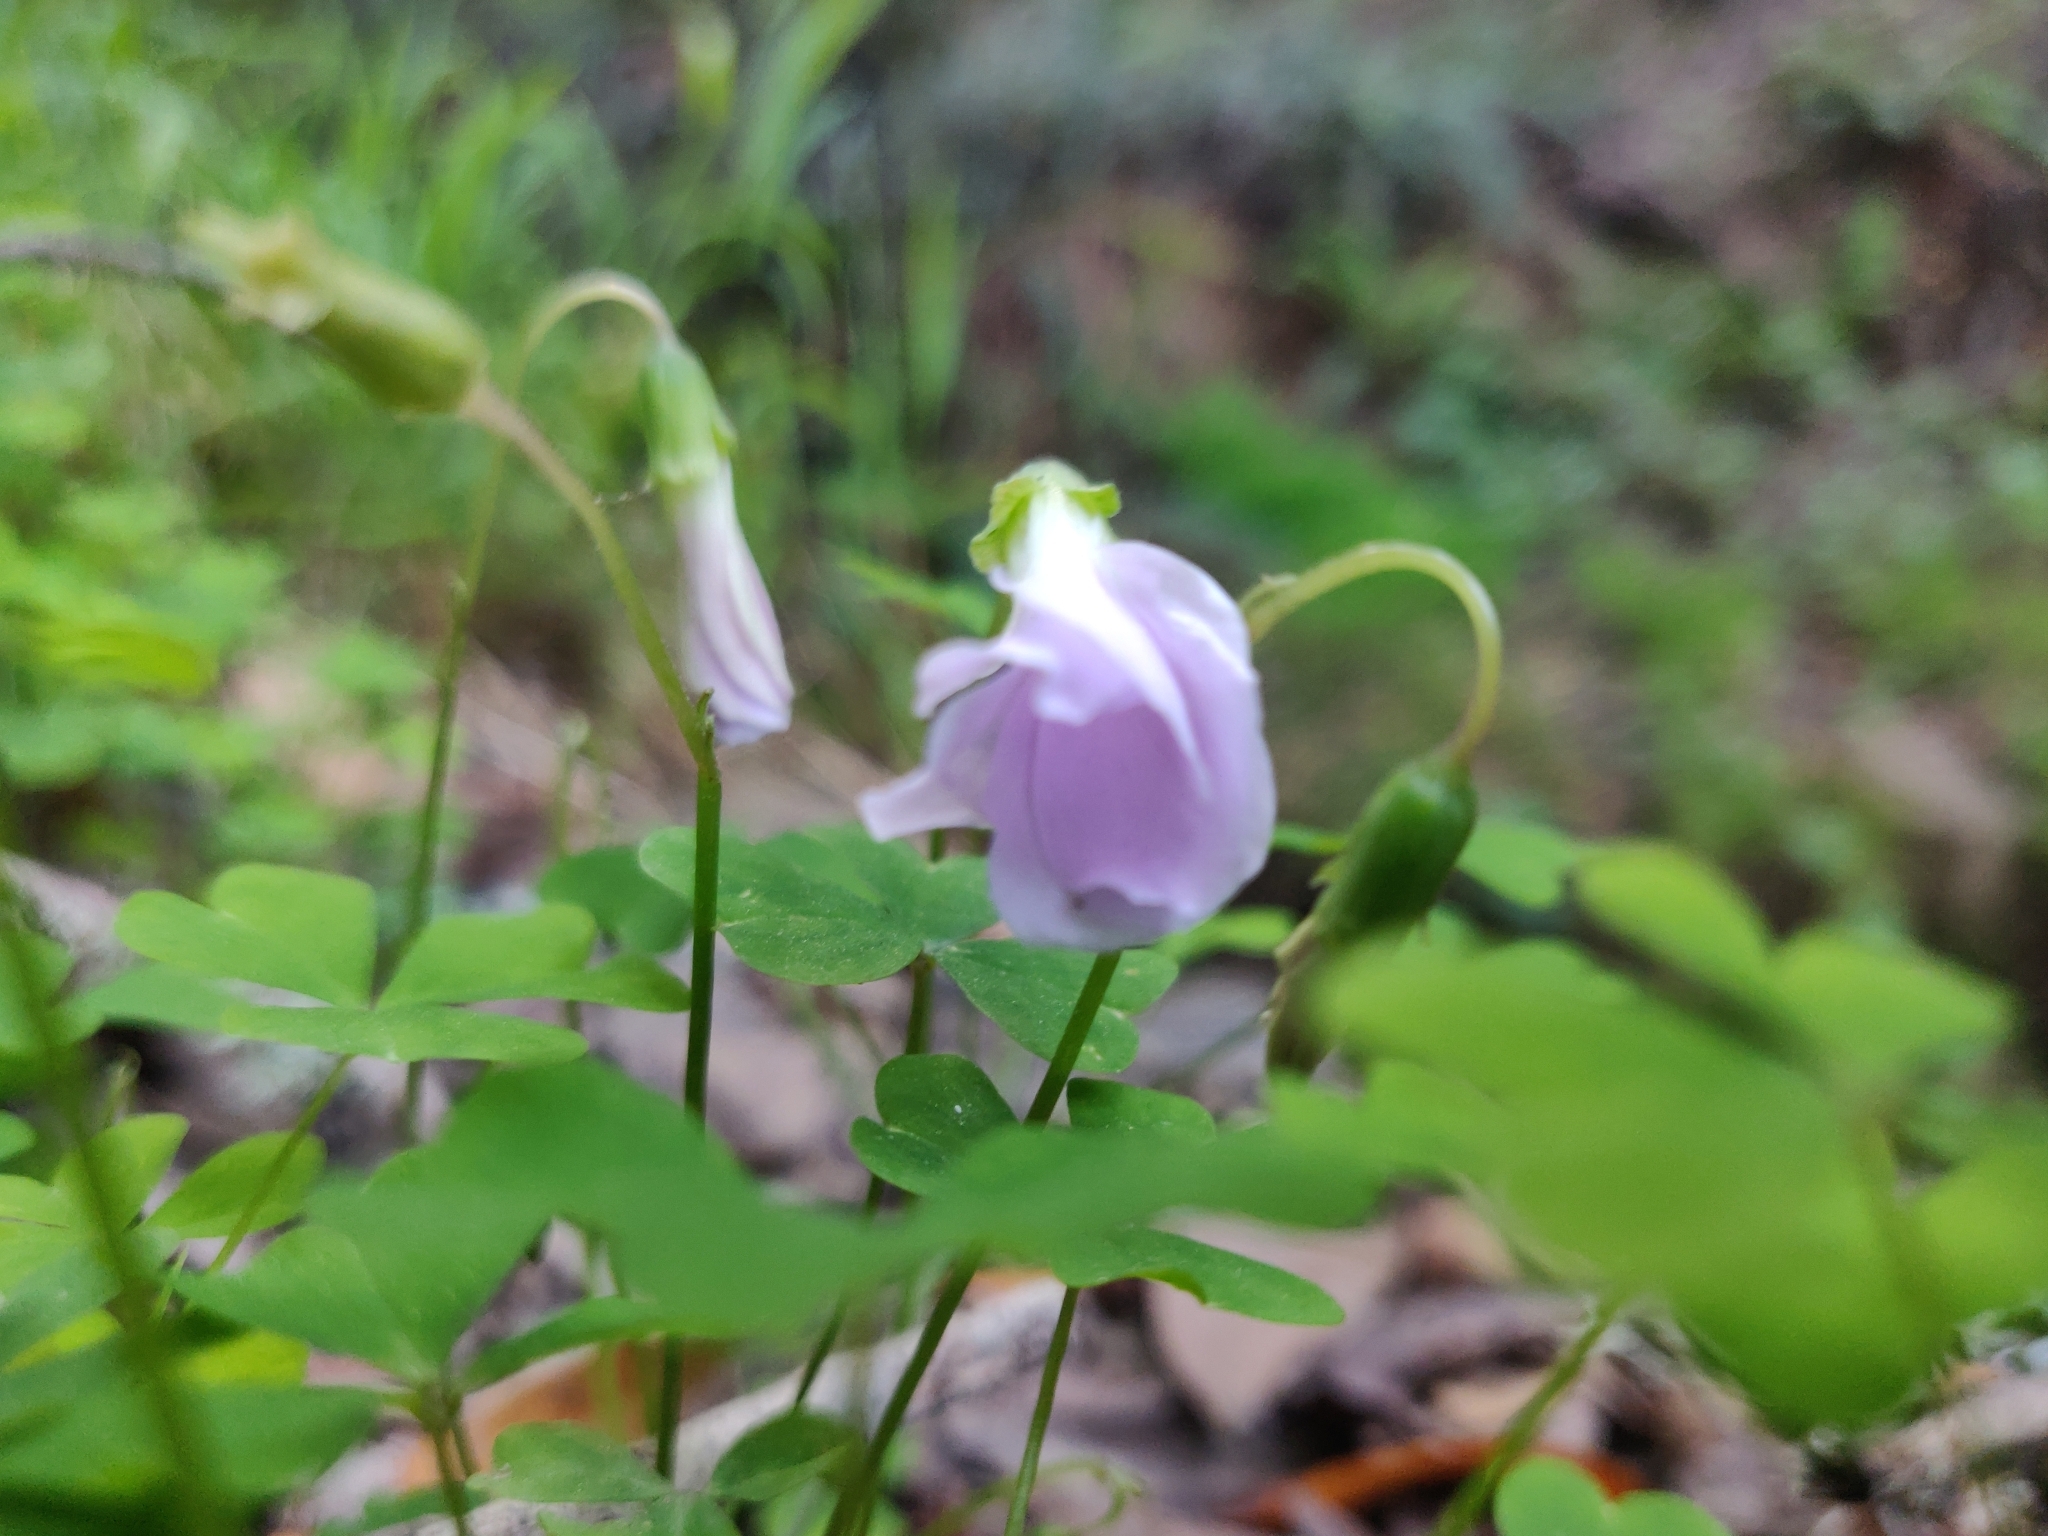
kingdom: Plantae
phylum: Tracheophyta
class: Magnoliopsida
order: Oxalidales
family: Oxalidaceae
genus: Oxalis
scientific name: Oxalis incarnata
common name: Pale pink-sorrel
